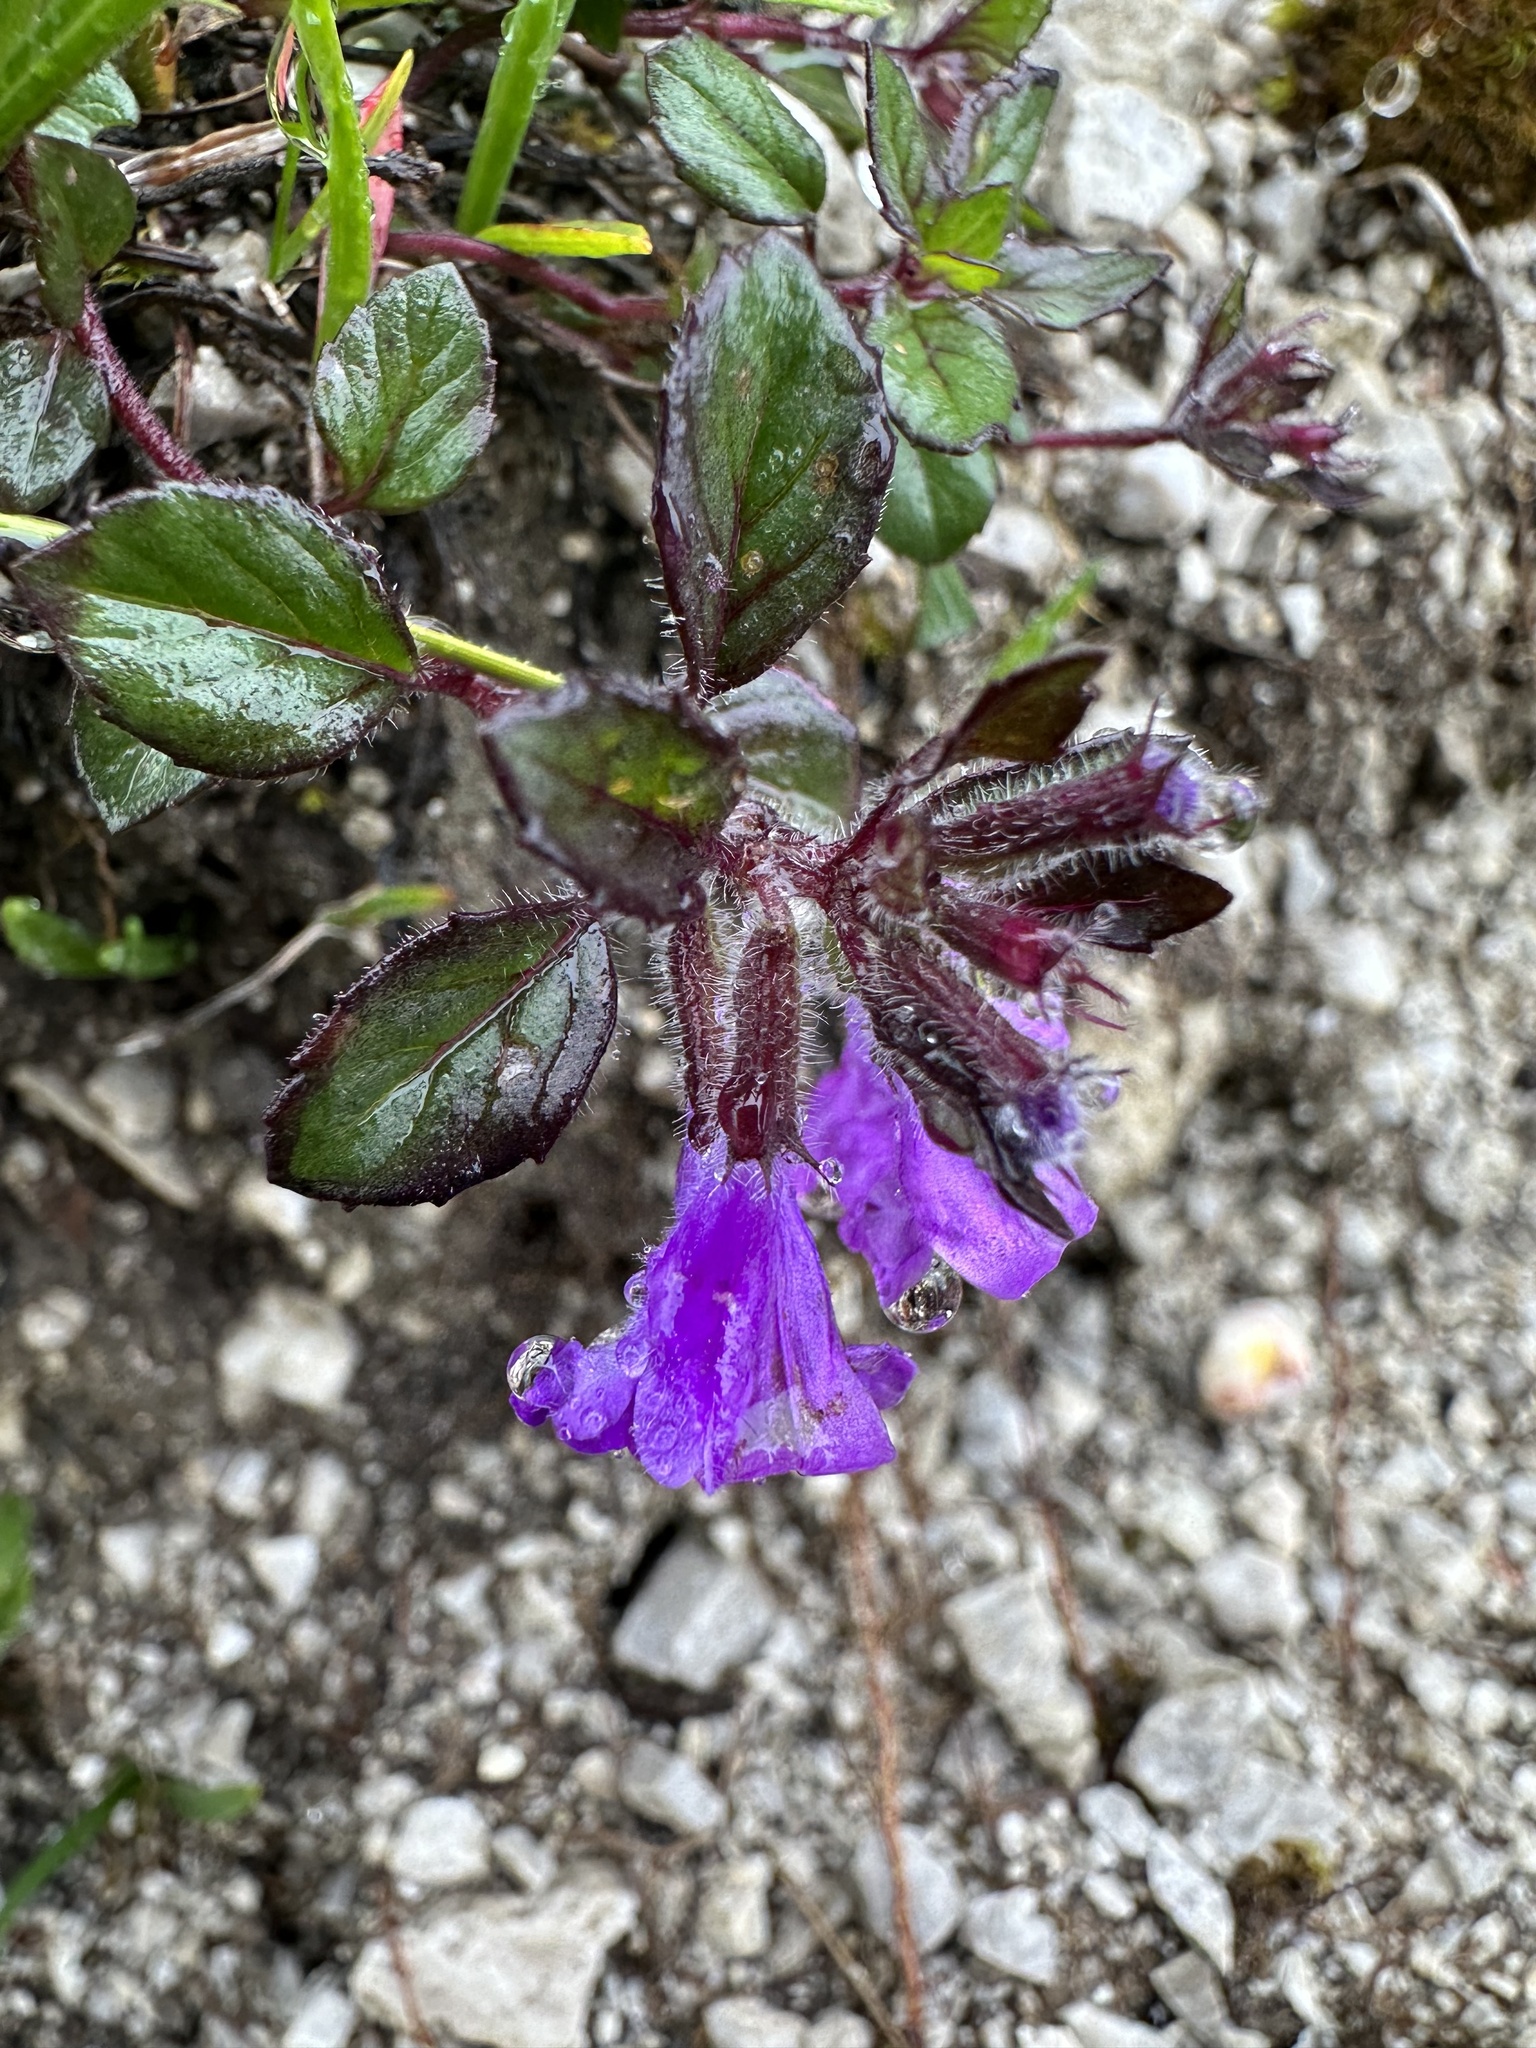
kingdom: Plantae
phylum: Tracheophyta
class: Magnoliopsida
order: Lamiales
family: Lamiaceae
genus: Clinopodium
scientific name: Clinopodium alpinum
